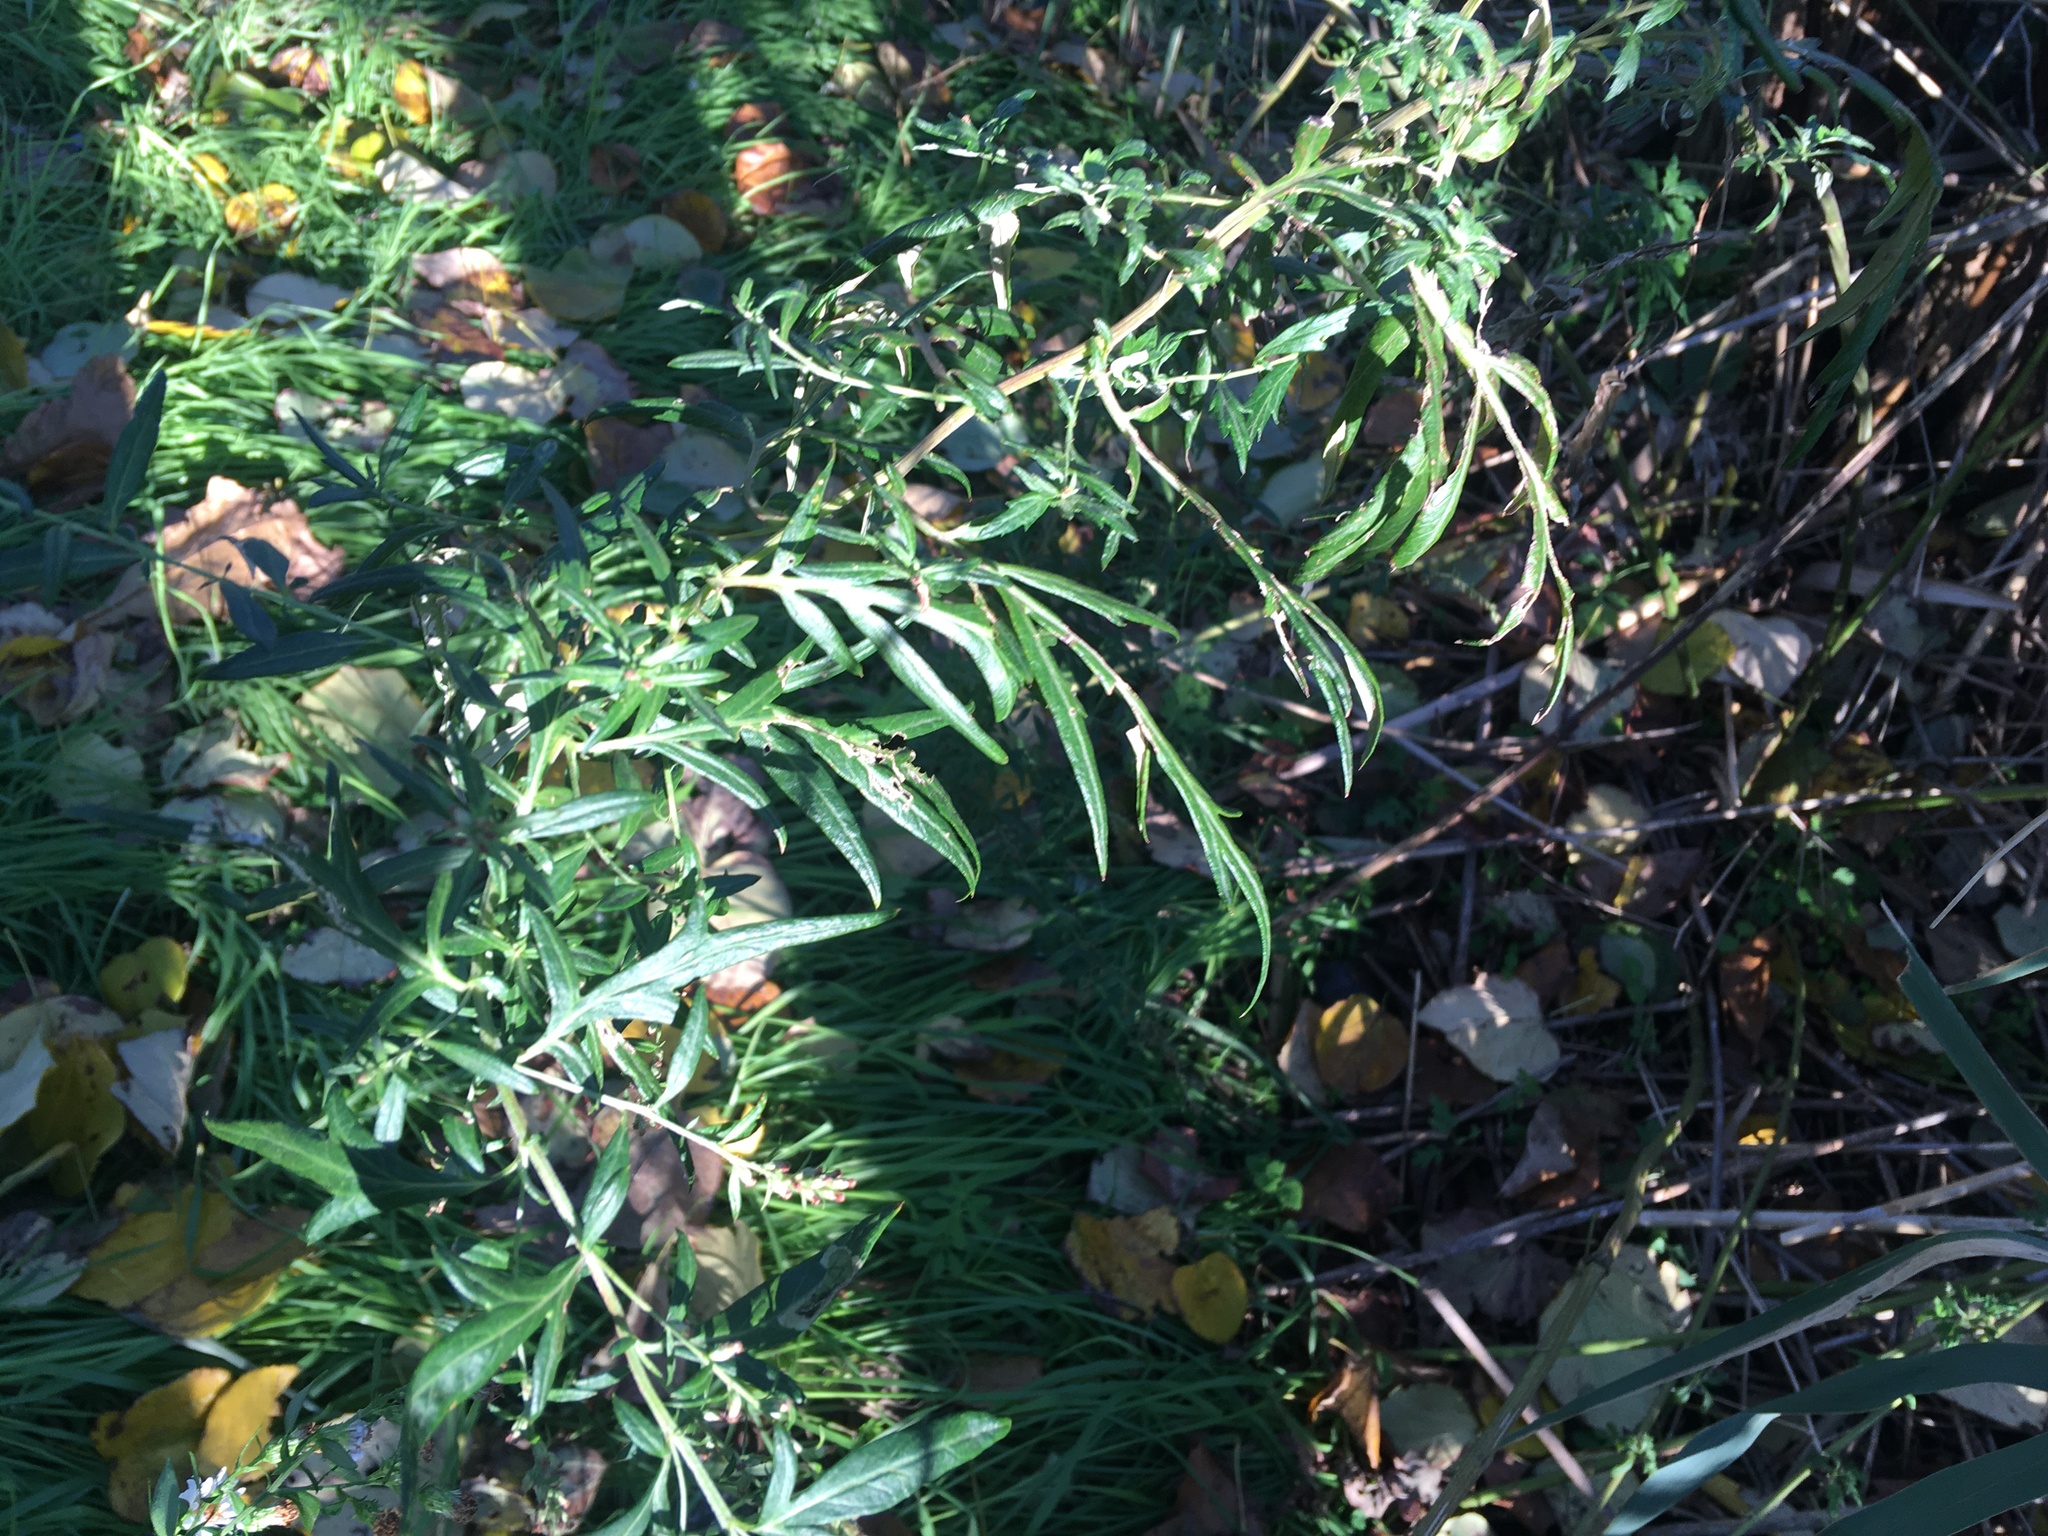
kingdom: Plantae
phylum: Tracheophyta
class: Magnoliopsida
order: Asterales
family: Asteraceae
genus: Artemisia
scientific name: Artemisia vulgaris
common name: Mugwort
